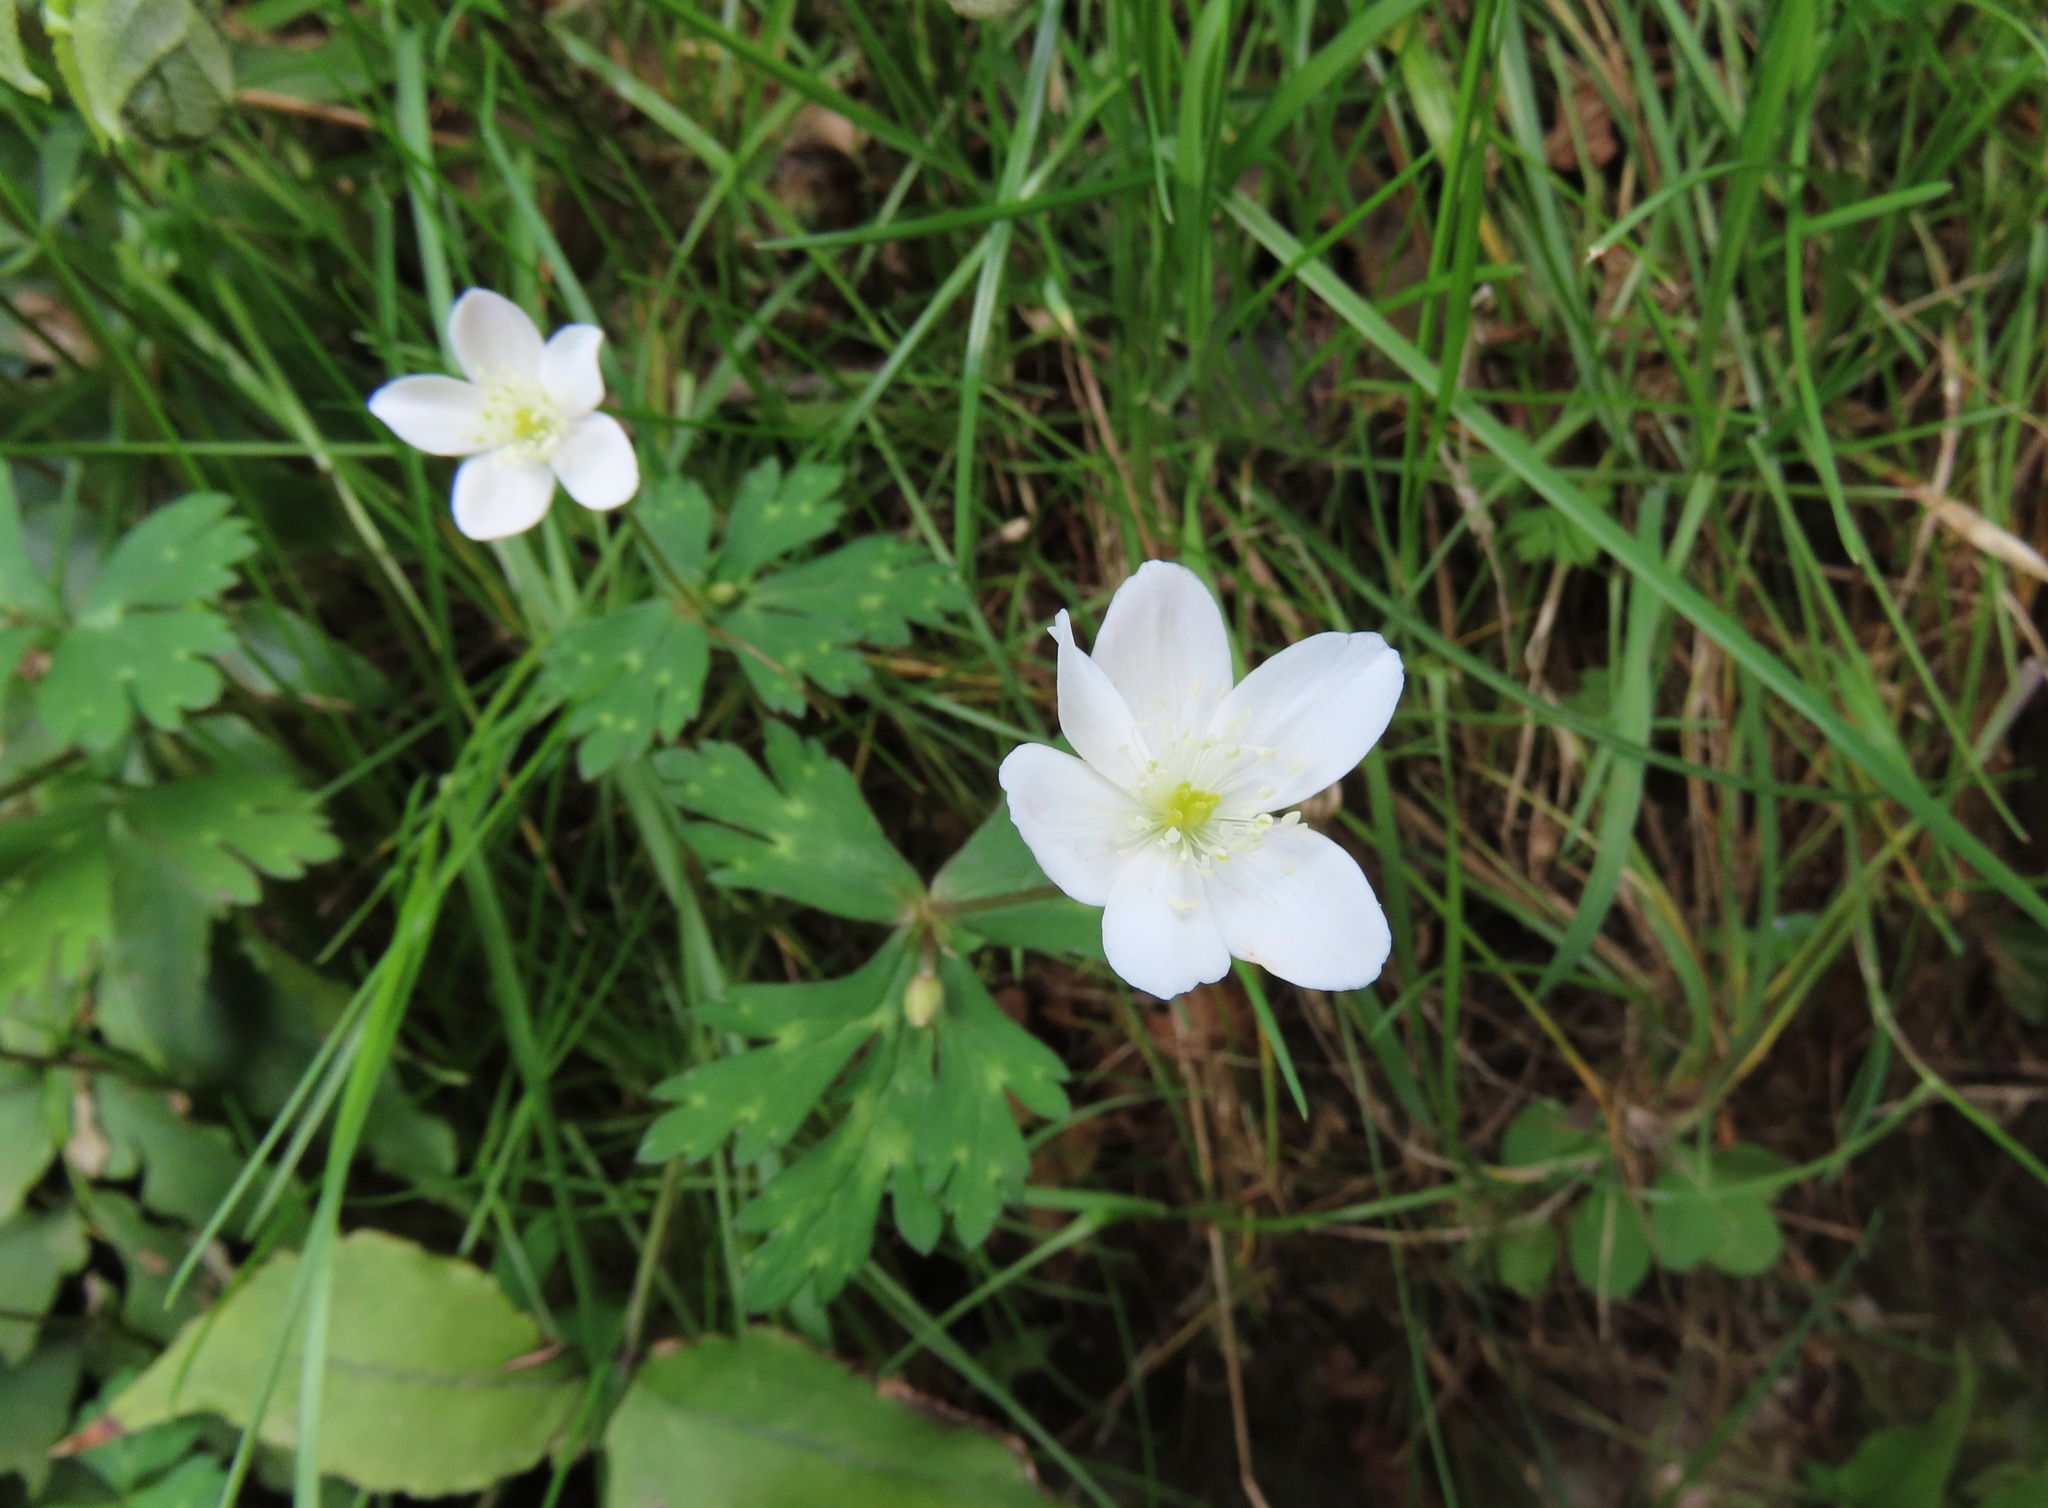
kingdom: Plantae
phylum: Tracheophyta
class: Magnoliopsida
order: Ranunculales
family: Ranunculaceae
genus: Anemonastrum
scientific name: Anemonastrum flaccidum
